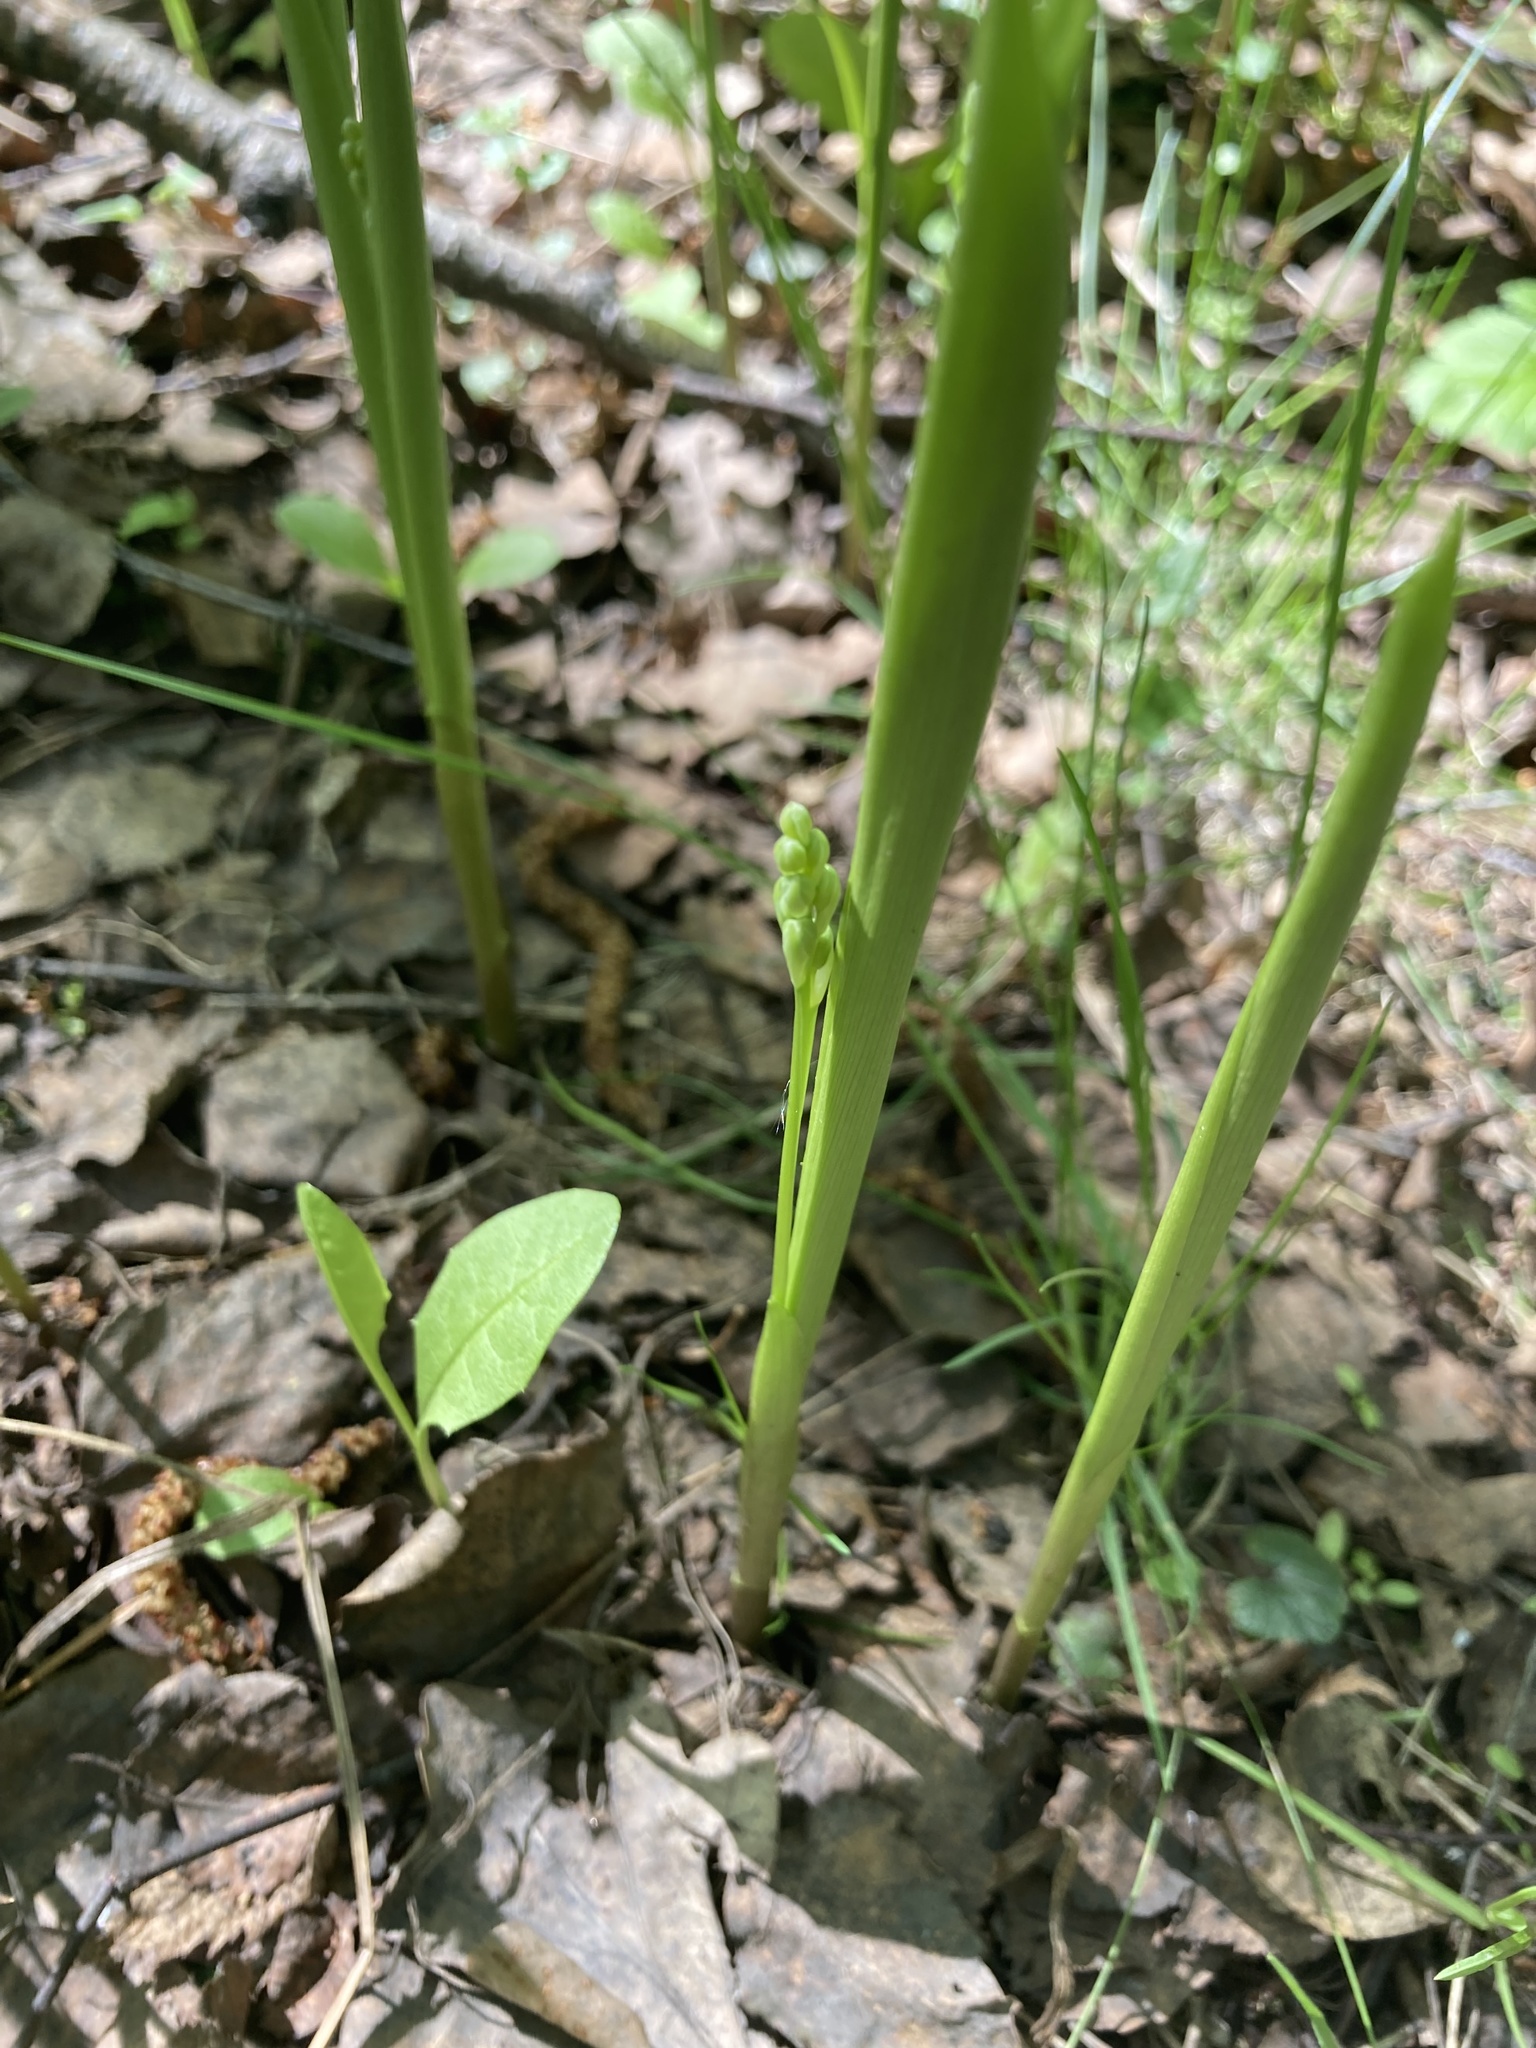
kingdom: Plantae
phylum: Tracheophyta
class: Liliopsida
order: Asparagales
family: Asparagaceae
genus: Convallaria
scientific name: Convallaria majalis
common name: Lily-of-the-valley
